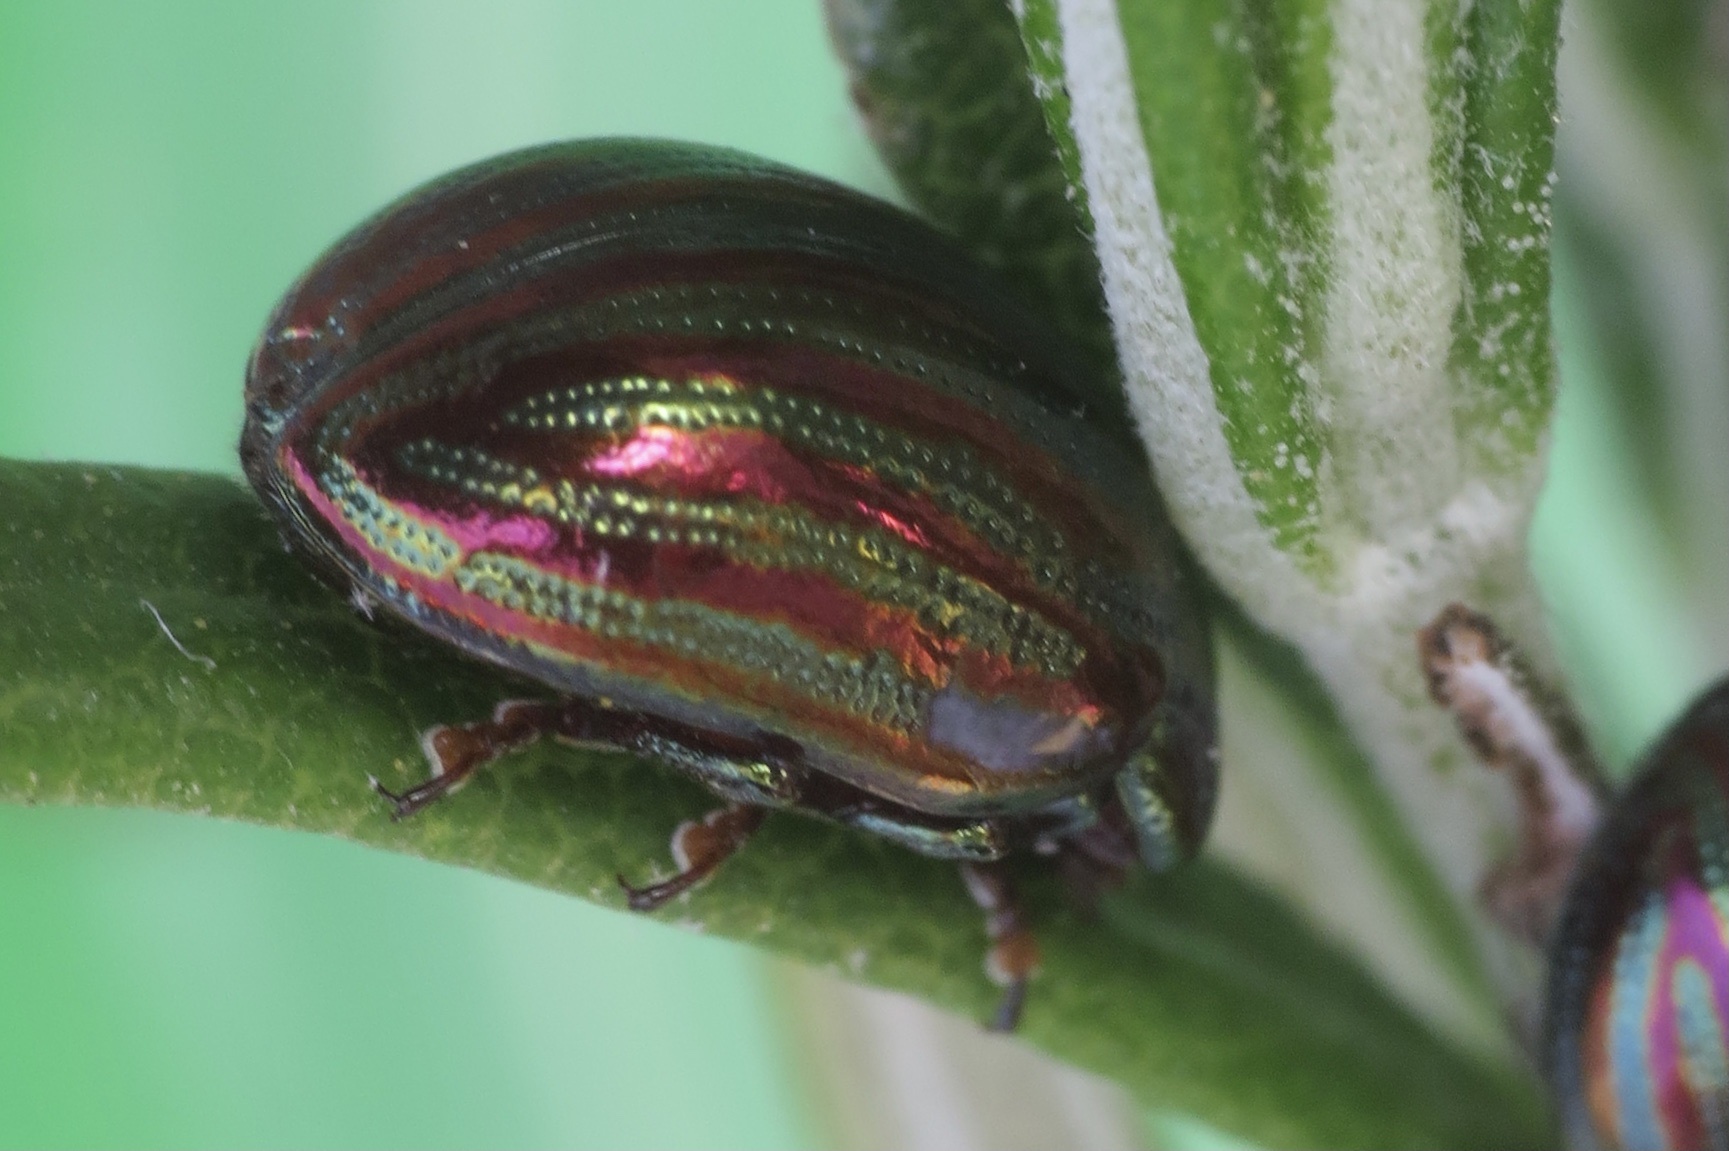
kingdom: Animalia
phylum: Arthropoda
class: Insecta
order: Coleoptera
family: Chrysomelidae
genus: Chrysolina
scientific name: Chrysolina americana
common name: Rosemary beetle
